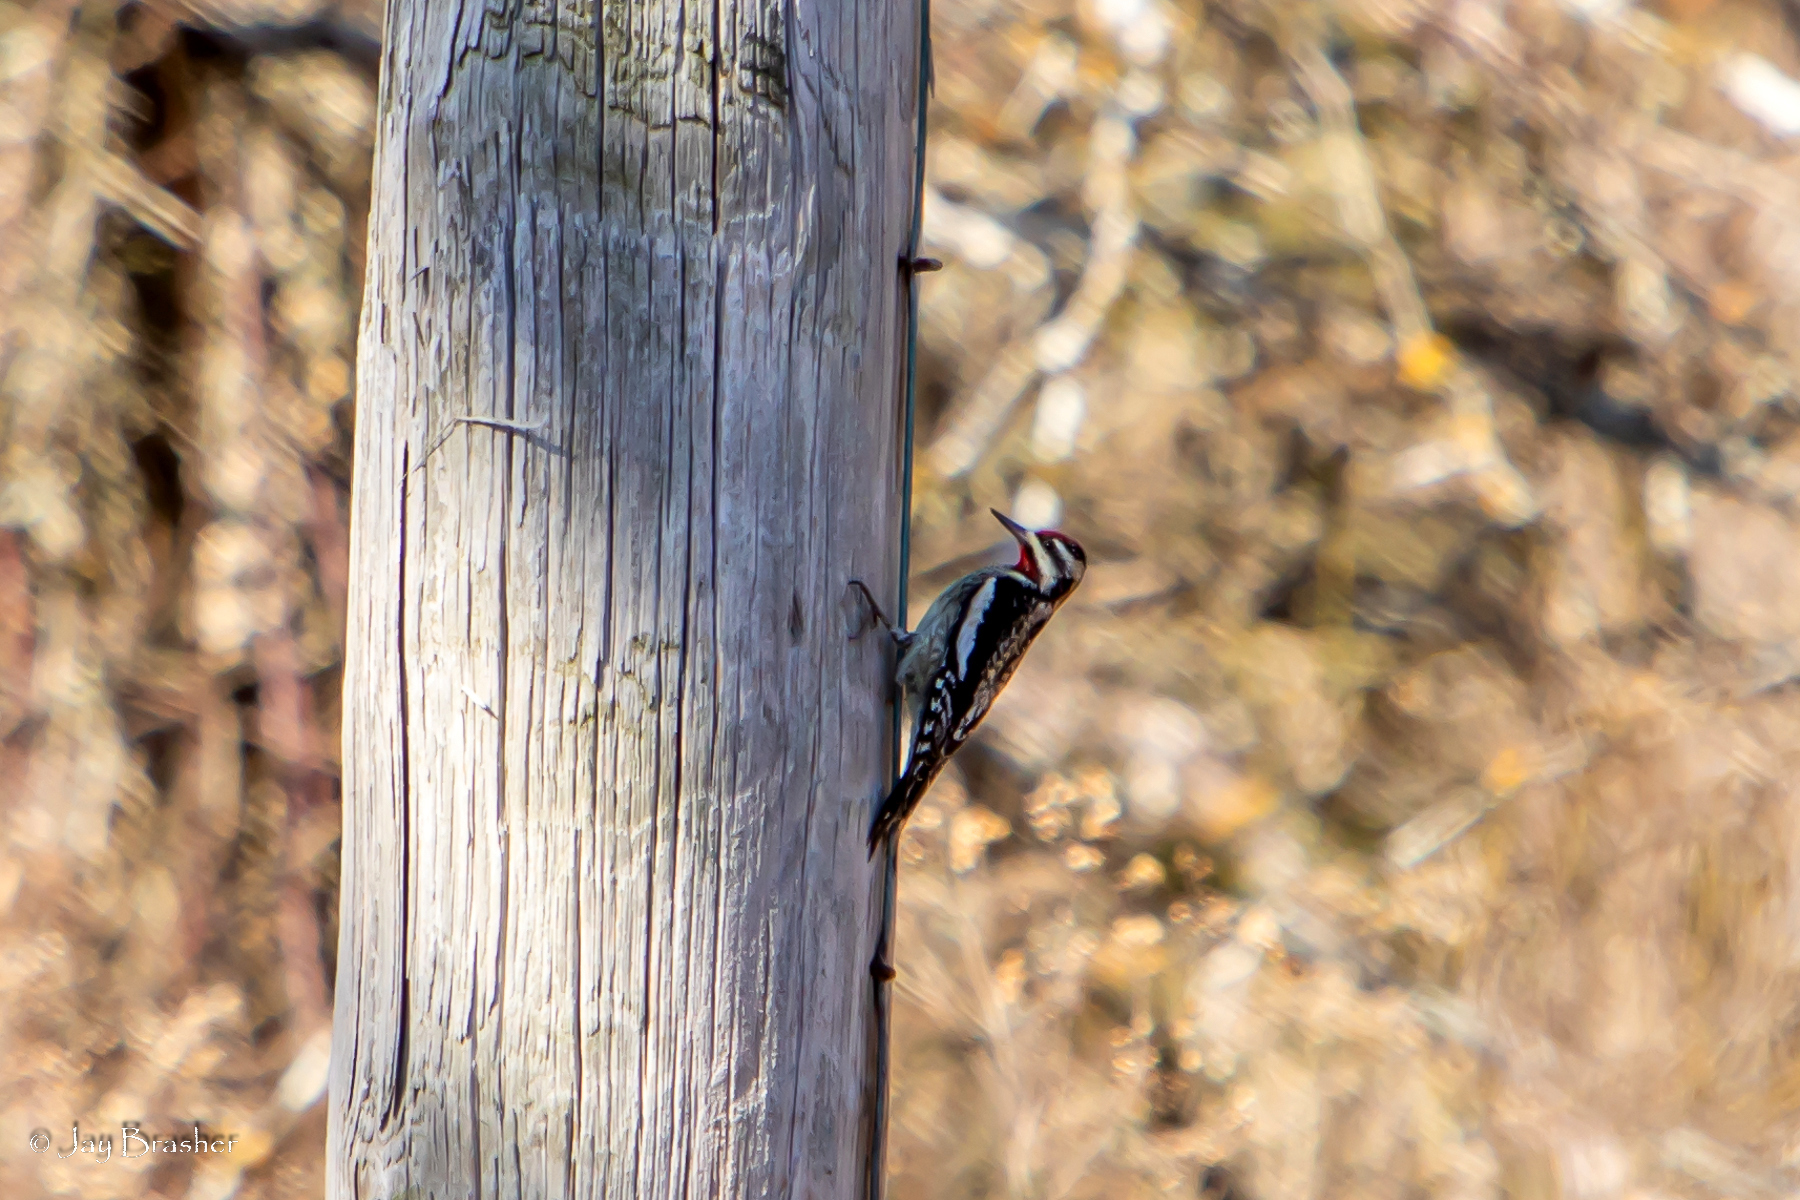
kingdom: Animalia
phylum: Chordata
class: Aves
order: Piciformes
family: Picidae
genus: Sphyrapicus
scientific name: Sphyrapicus varius
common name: Yellow-bellied sapsucker
